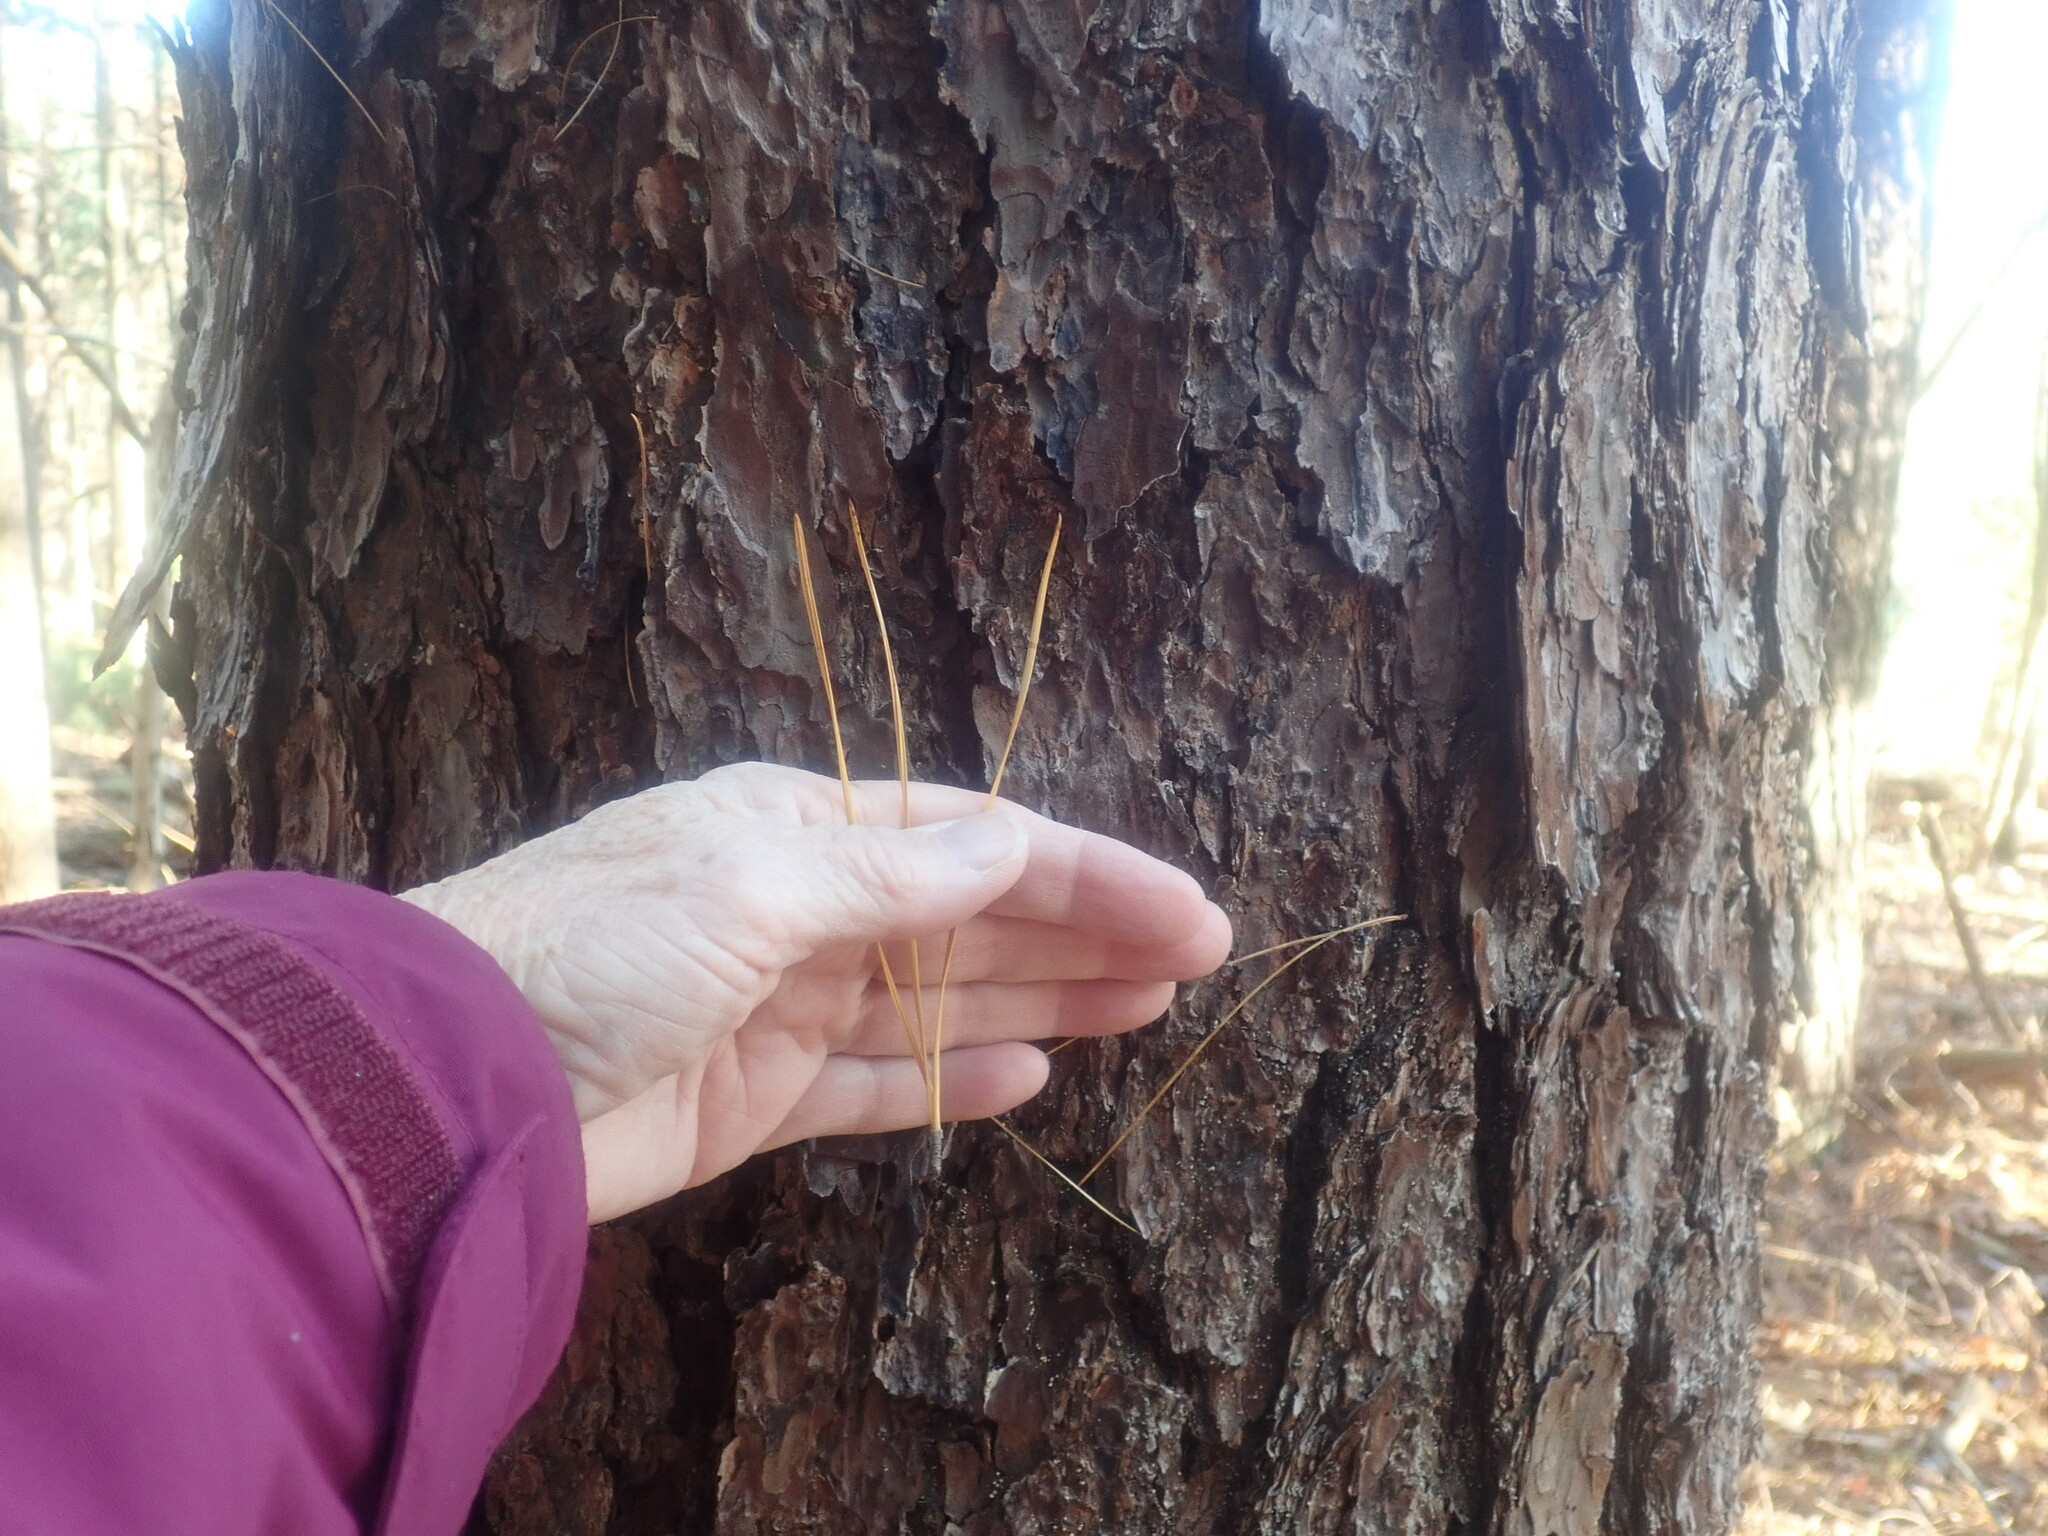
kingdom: Plantae
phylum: Tracheophyta
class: Pinopsida
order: Pinales
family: Pinaceae
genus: Pinus
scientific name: Pinus rigida
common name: Pitch pine
